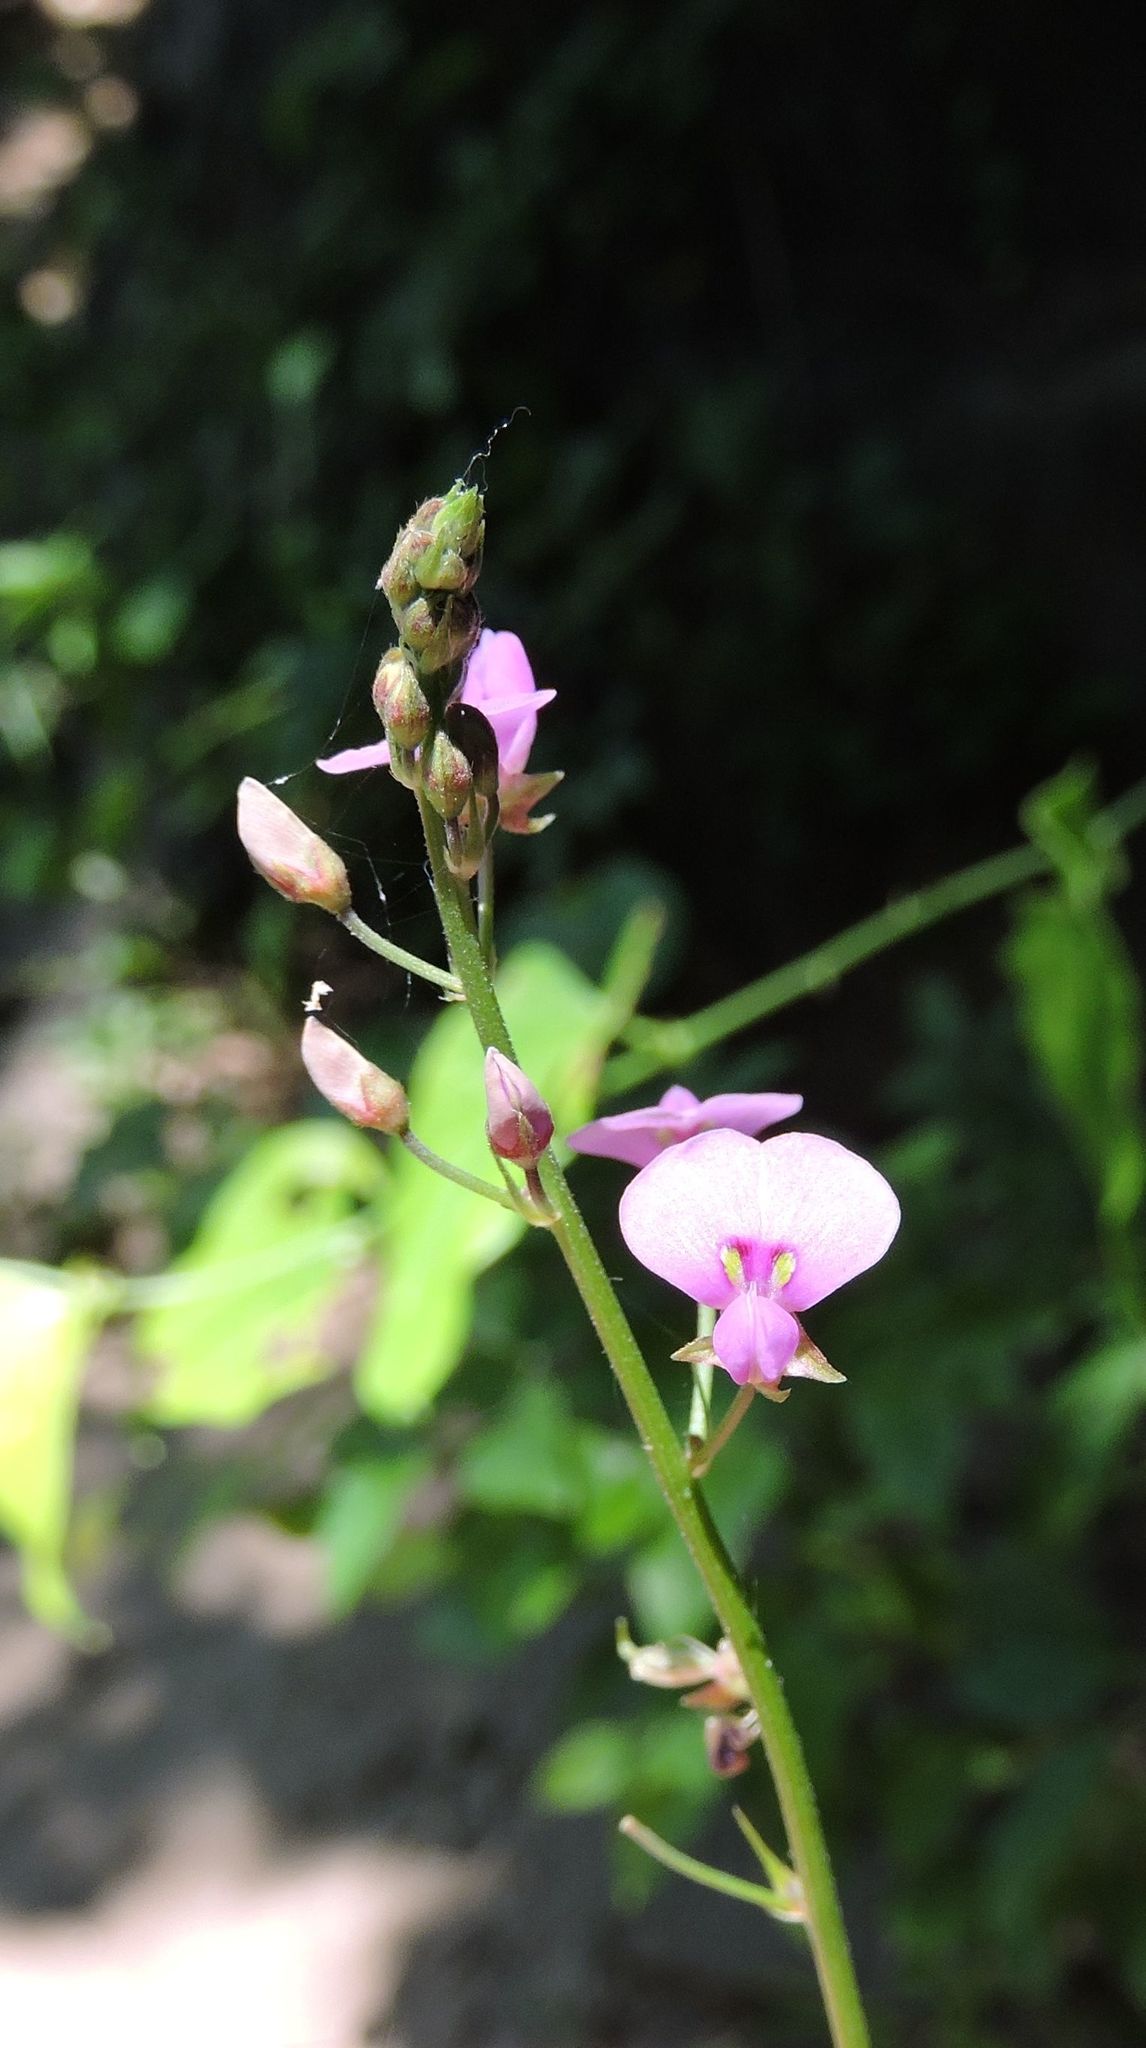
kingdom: Plantae
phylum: Tracheophyta
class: Magnoliopsida
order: Fabales
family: Fabaceae
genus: Desmodium
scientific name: Desmodium paniculatum
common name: Panicled tick-clover
